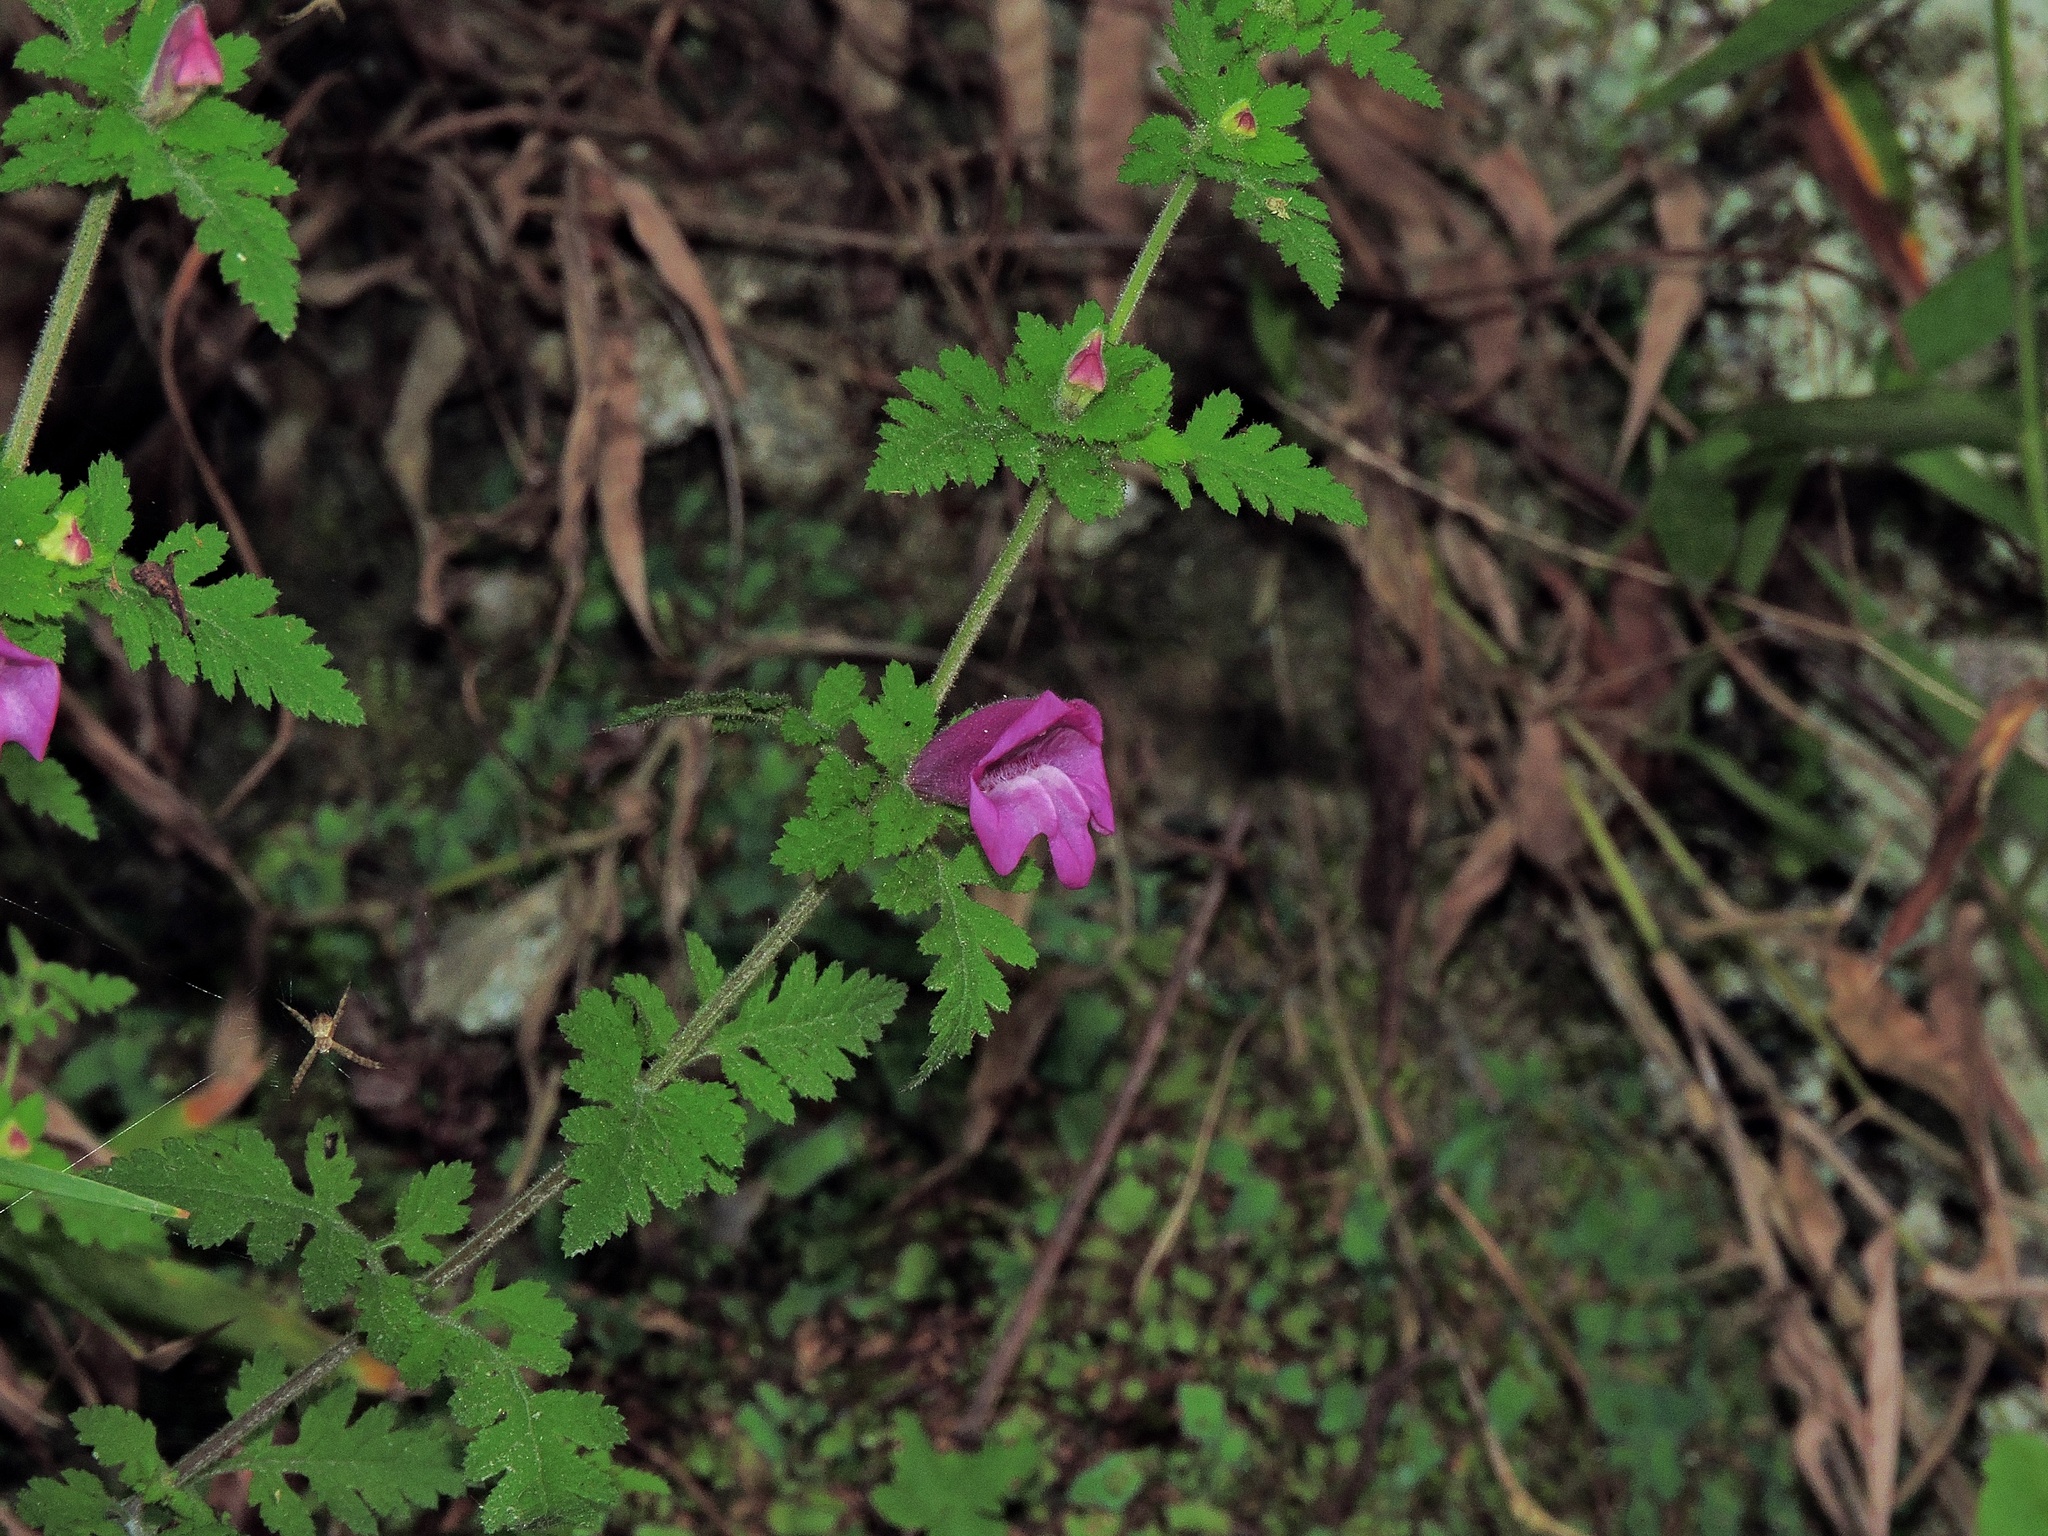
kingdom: Plantae
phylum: Tracheophyta
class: Magnoliopsida
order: Lamiales
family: Orobanchaceae
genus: Phtheirospermum
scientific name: Phtheirospermum japonicum
